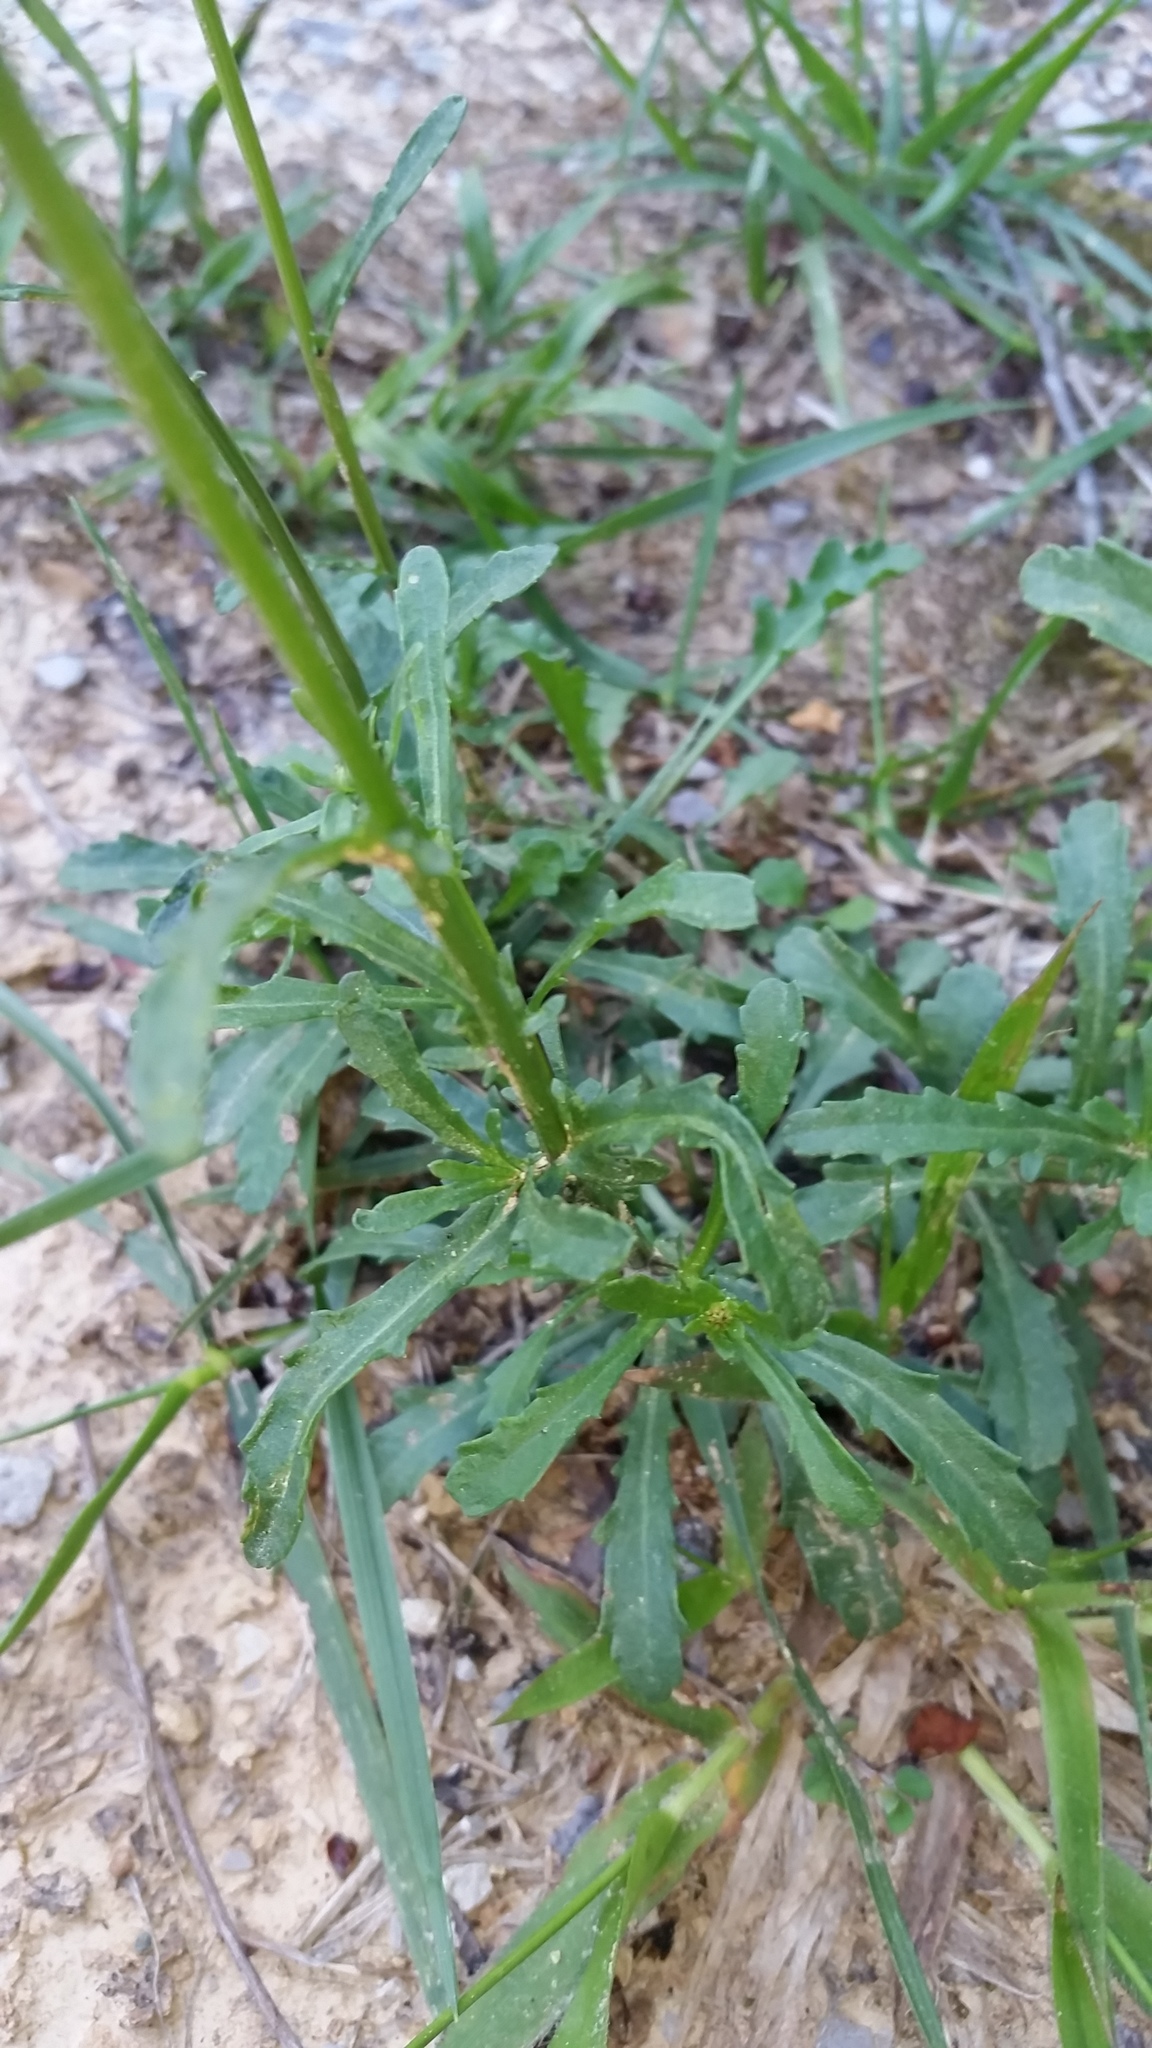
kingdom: Plantae
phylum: Tracheophyta
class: Magnoliopsida
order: Asterales
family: Asteraceae
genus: Leucanthemum
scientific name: Leucanthemum vulgare
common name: Oxeye daisy
